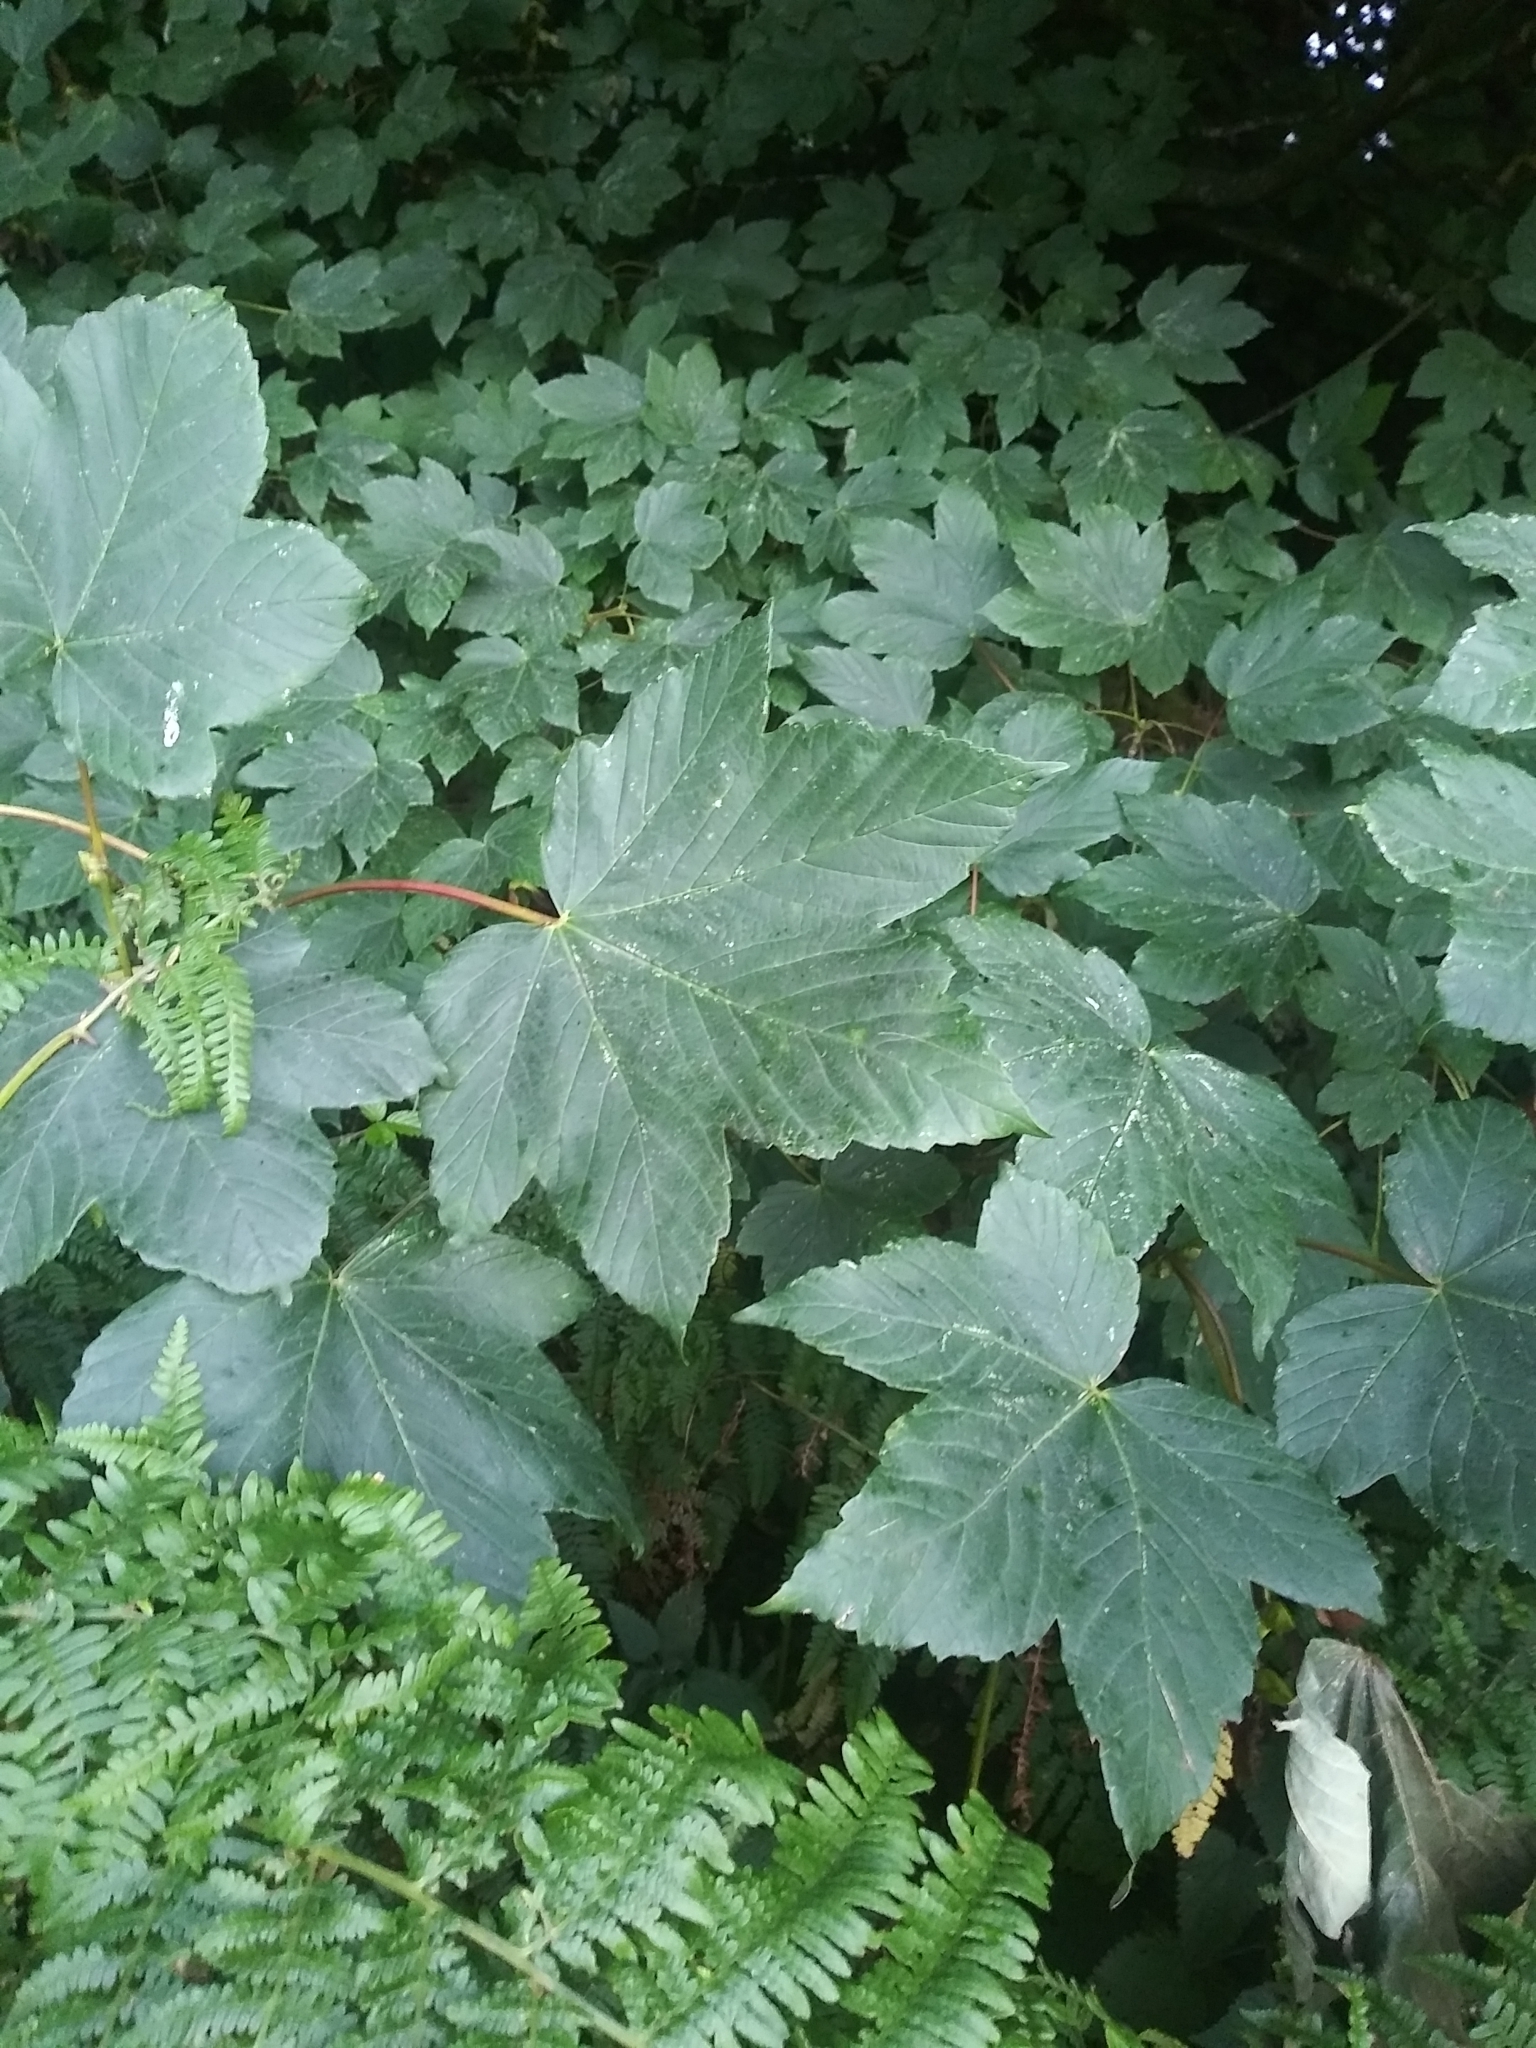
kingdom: Plantae
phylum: Tracheophyta
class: Magnoliopsida
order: Sapindales
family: Sapindaceae
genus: Acer
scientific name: Acer pseudoplatanus
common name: Sycamore
